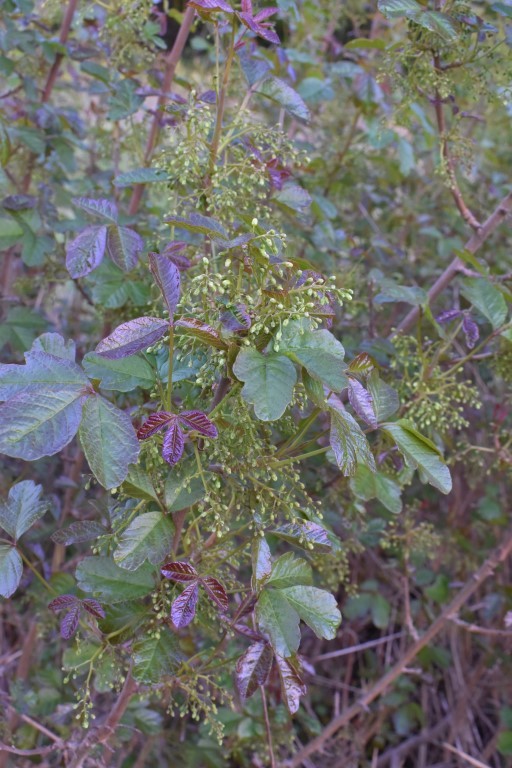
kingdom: Plantae
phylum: Tracheophyta
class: Magnoliopsida
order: Sapindales
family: Anacardiaceae
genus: Toxicodendron
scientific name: Toxicodendron diversilobum
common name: Pacific poison-oak
